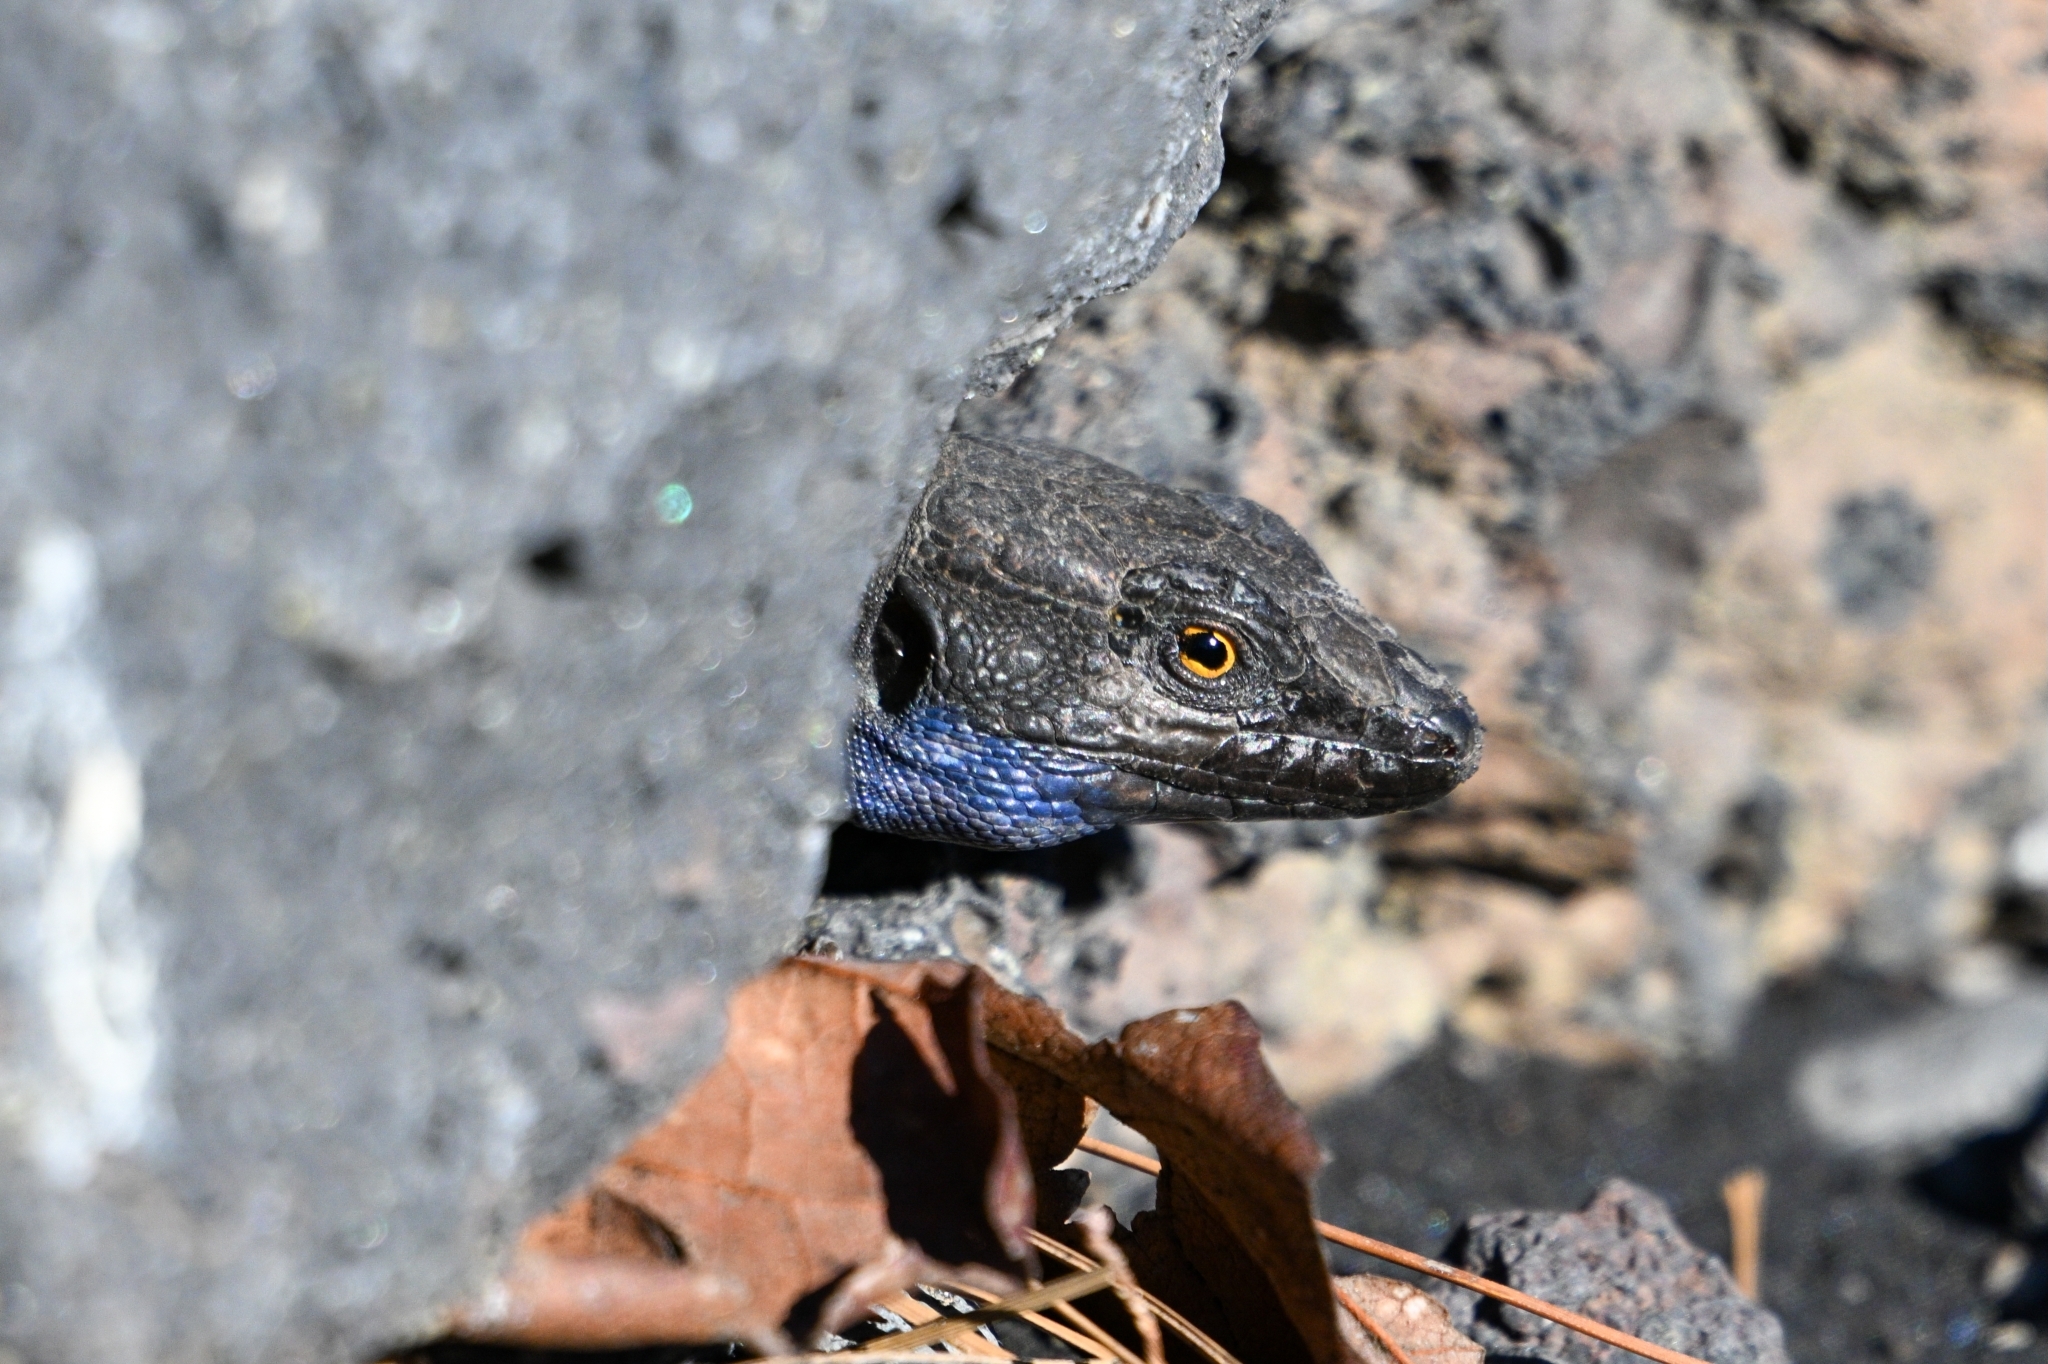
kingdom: Animalia
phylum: Chordata
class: Squamata
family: Lacertidae
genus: Gallotia
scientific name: Gallotia galloti
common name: Gallot's lizard
